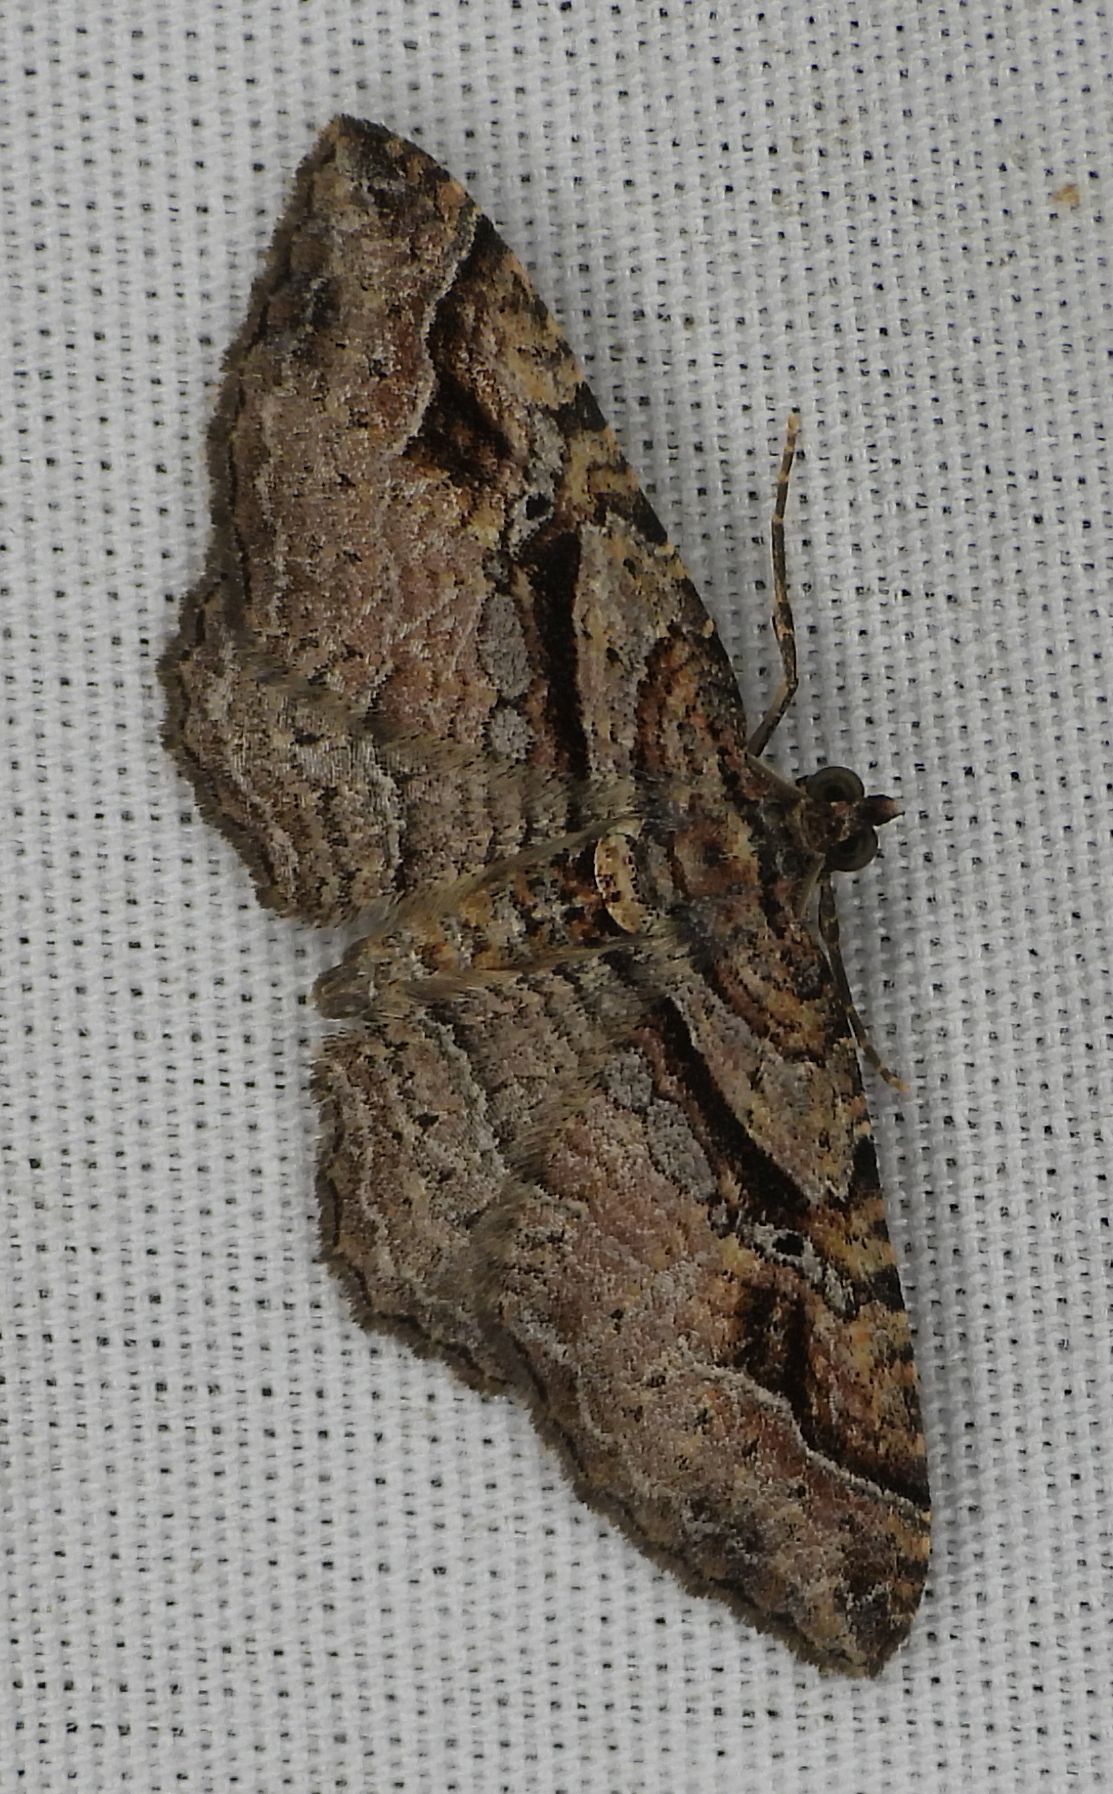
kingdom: Animalia
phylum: Arthropoda
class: Insecta
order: Lepidoptera
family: Geometridae
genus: Costaconvexa
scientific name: Costaconvexa centrostrigaria
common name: Bent-line carpet
